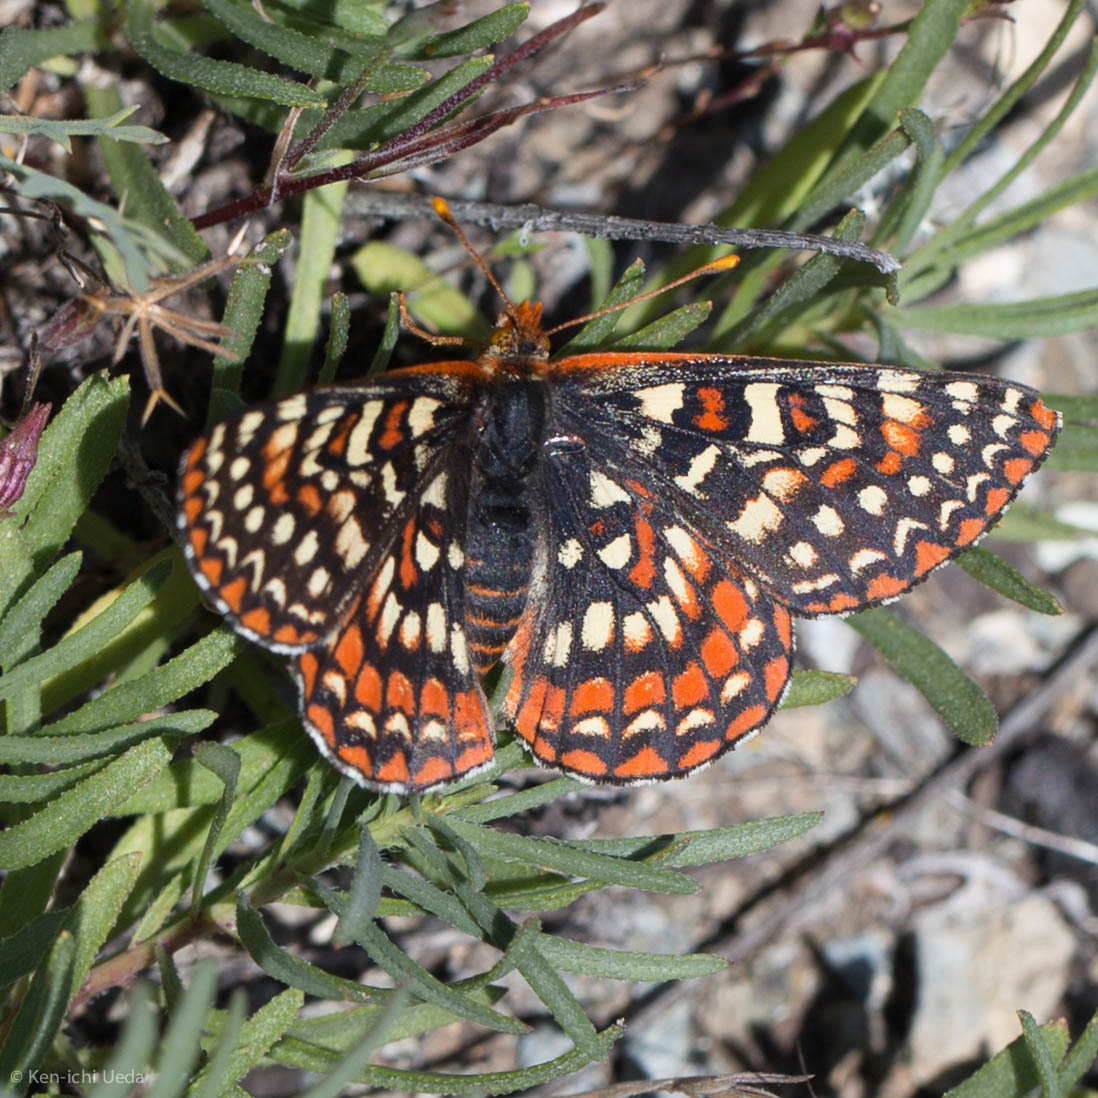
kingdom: Animalia
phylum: Arthropoda
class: Insecta
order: Lepidoptera
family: Nymphalidae
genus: Occidryas
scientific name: Occidryas editha
